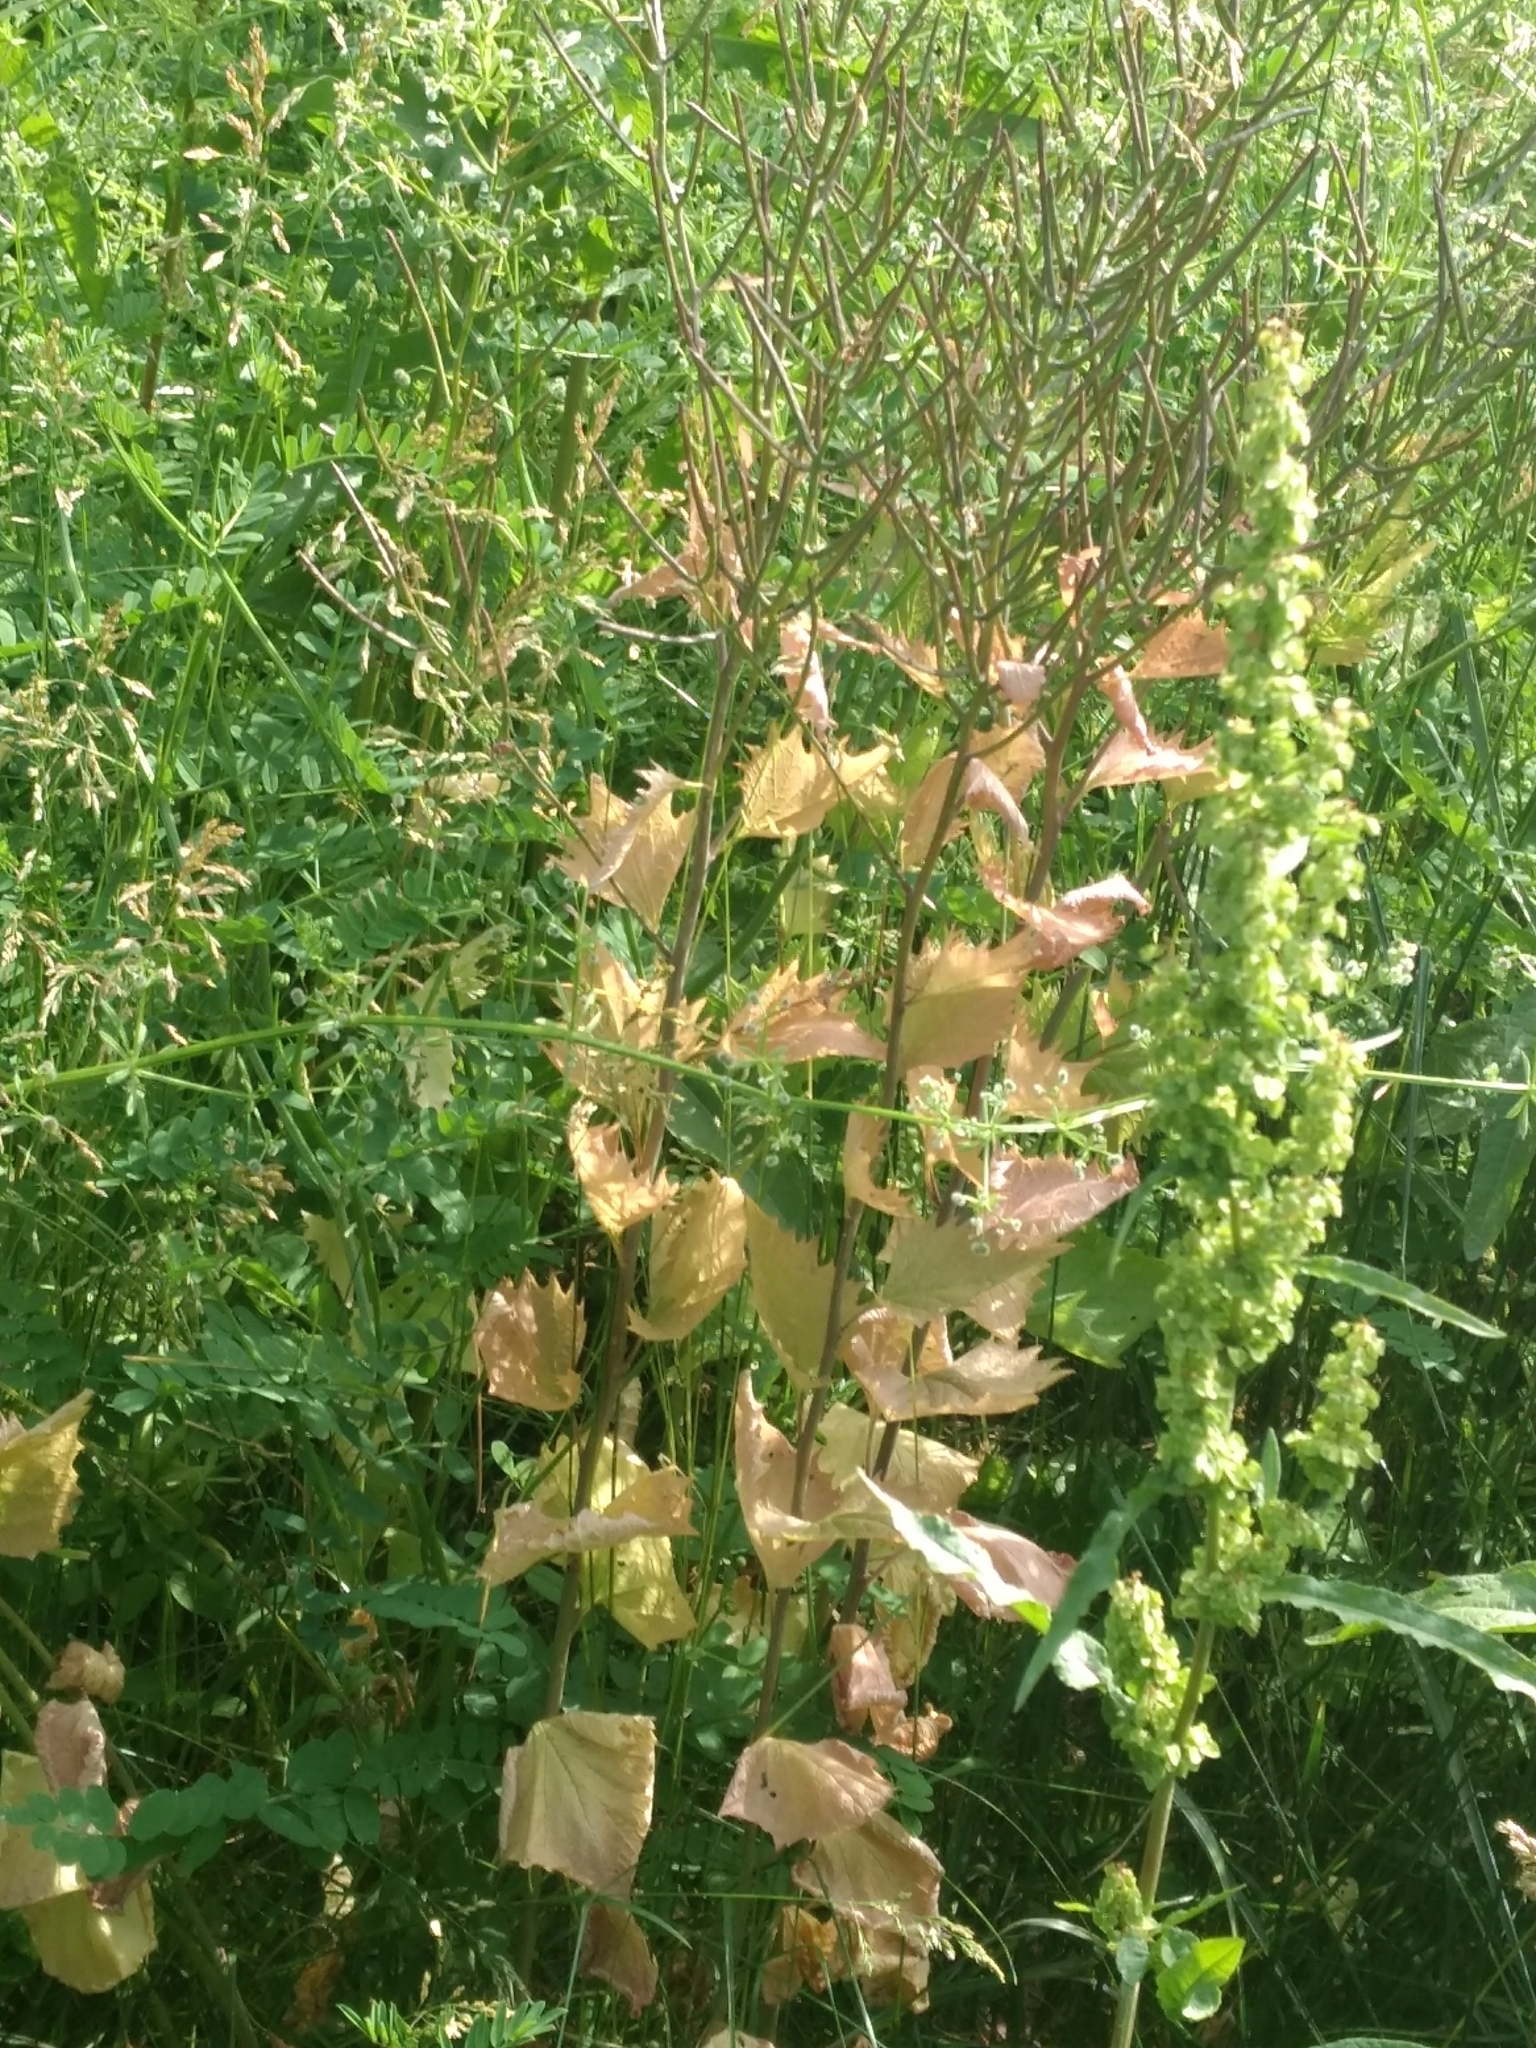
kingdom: Plantae
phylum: Tracheophyta
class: Magnoliopsida
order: Brassicales
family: Brassicaceae
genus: Alliaria
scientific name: Alliaria petiolata
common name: Garlic mustard
